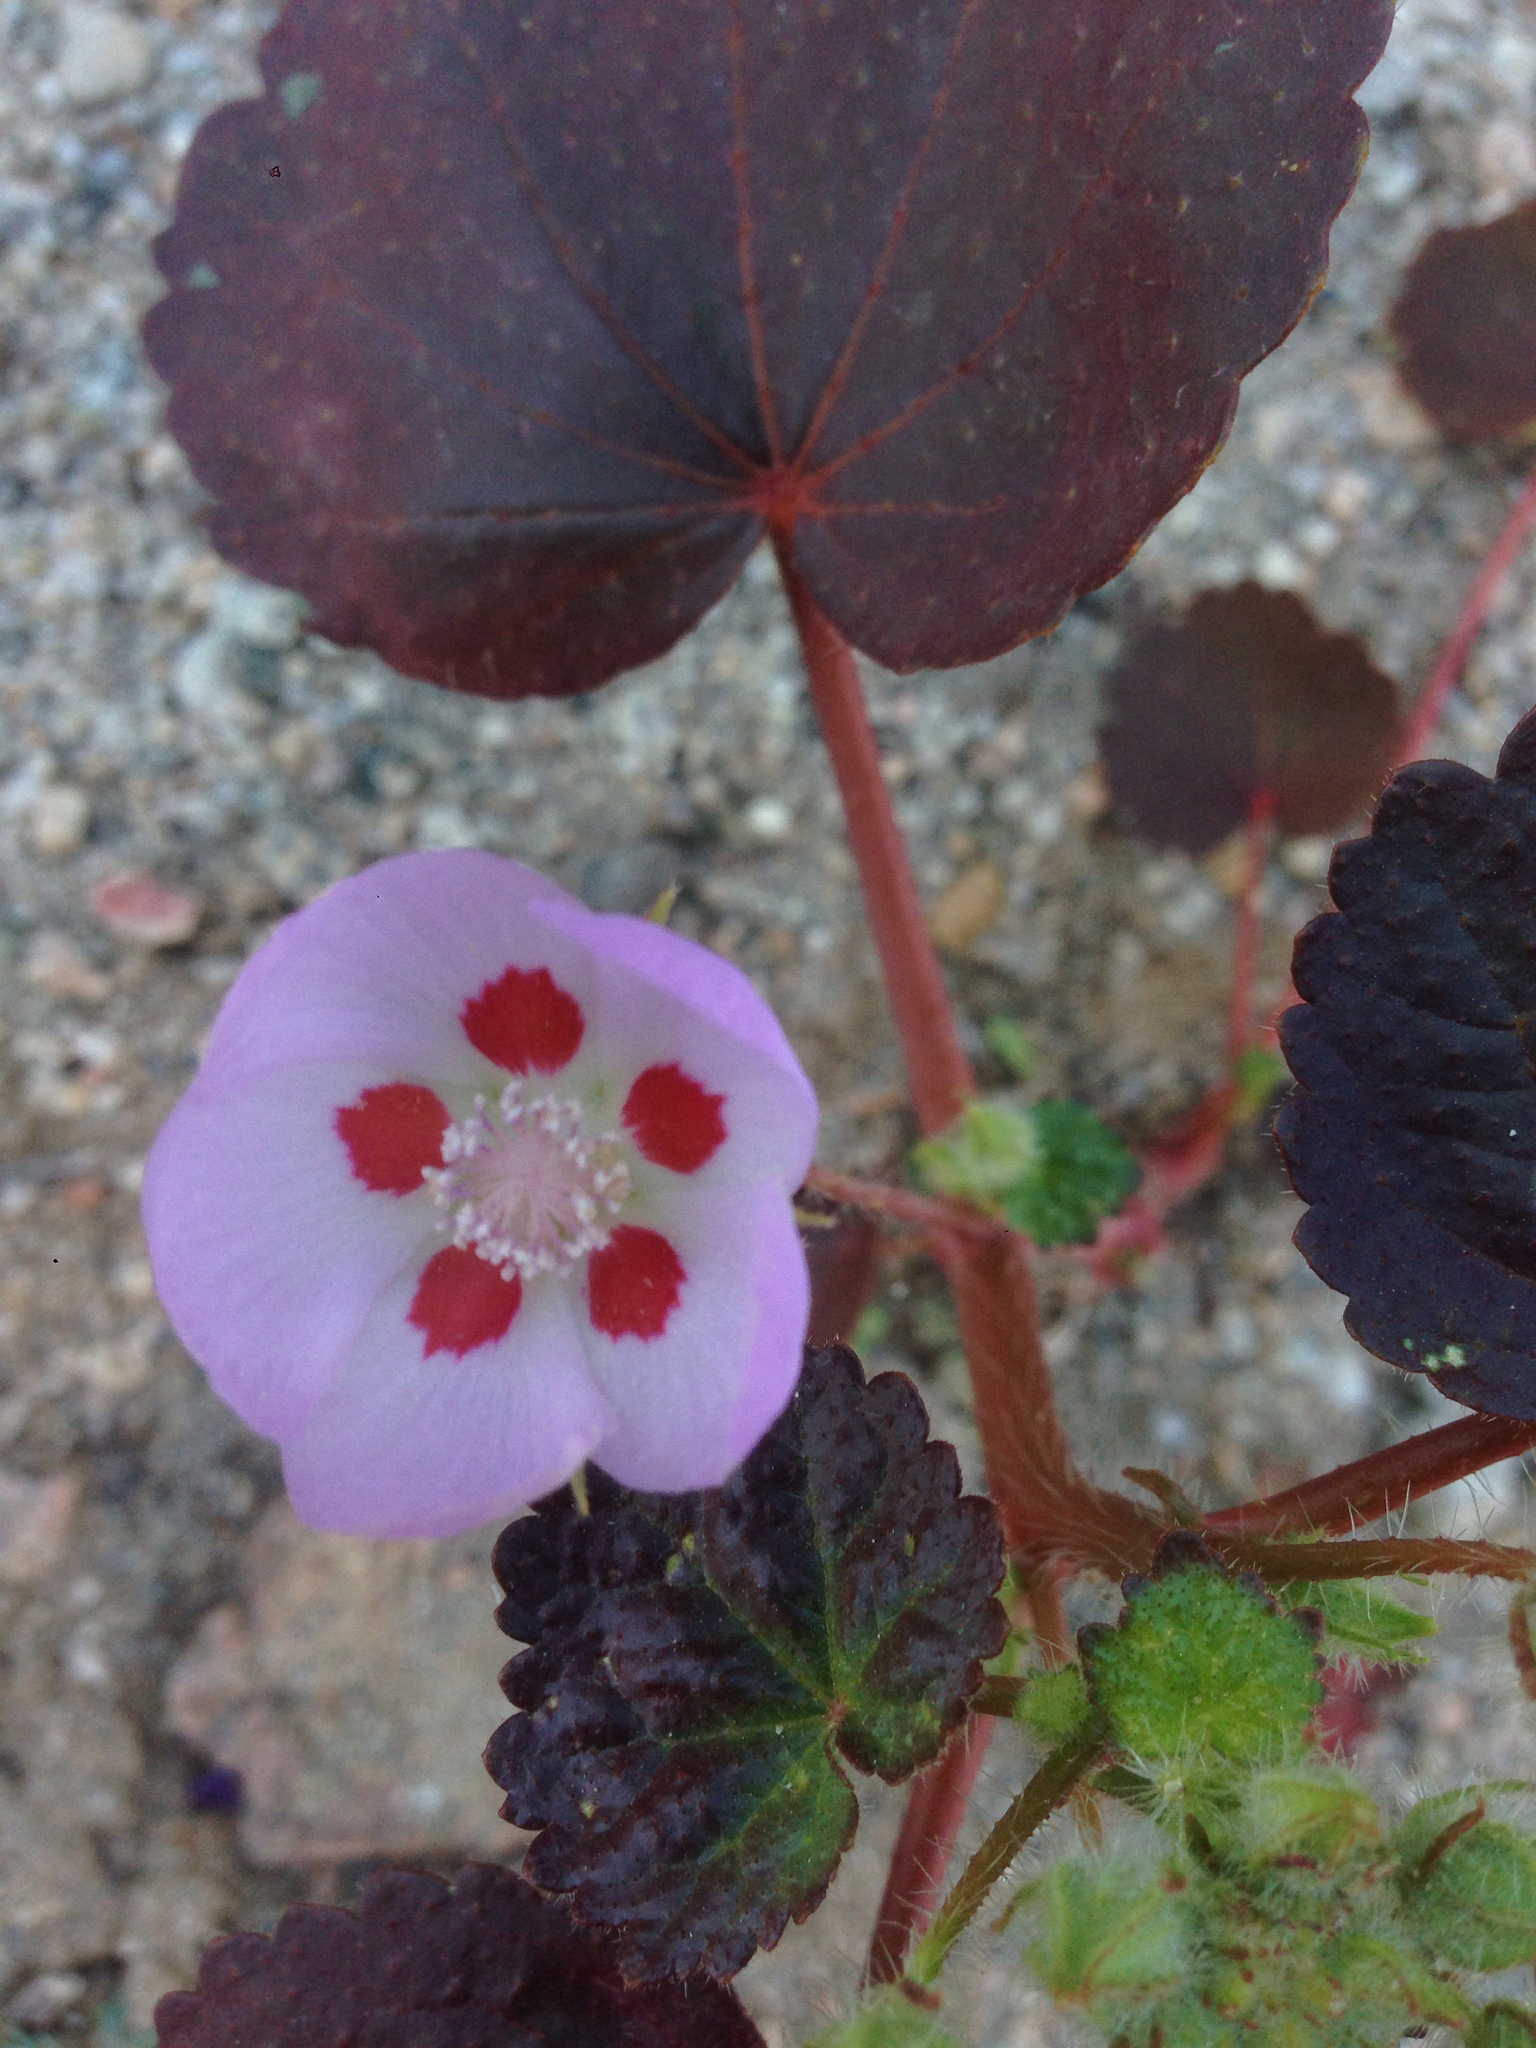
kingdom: Plantae
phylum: Tracheophyta
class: Magnoliopsida
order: Malvales
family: Malvaceae
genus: Eremalche
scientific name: Eremalche rotundifolia
